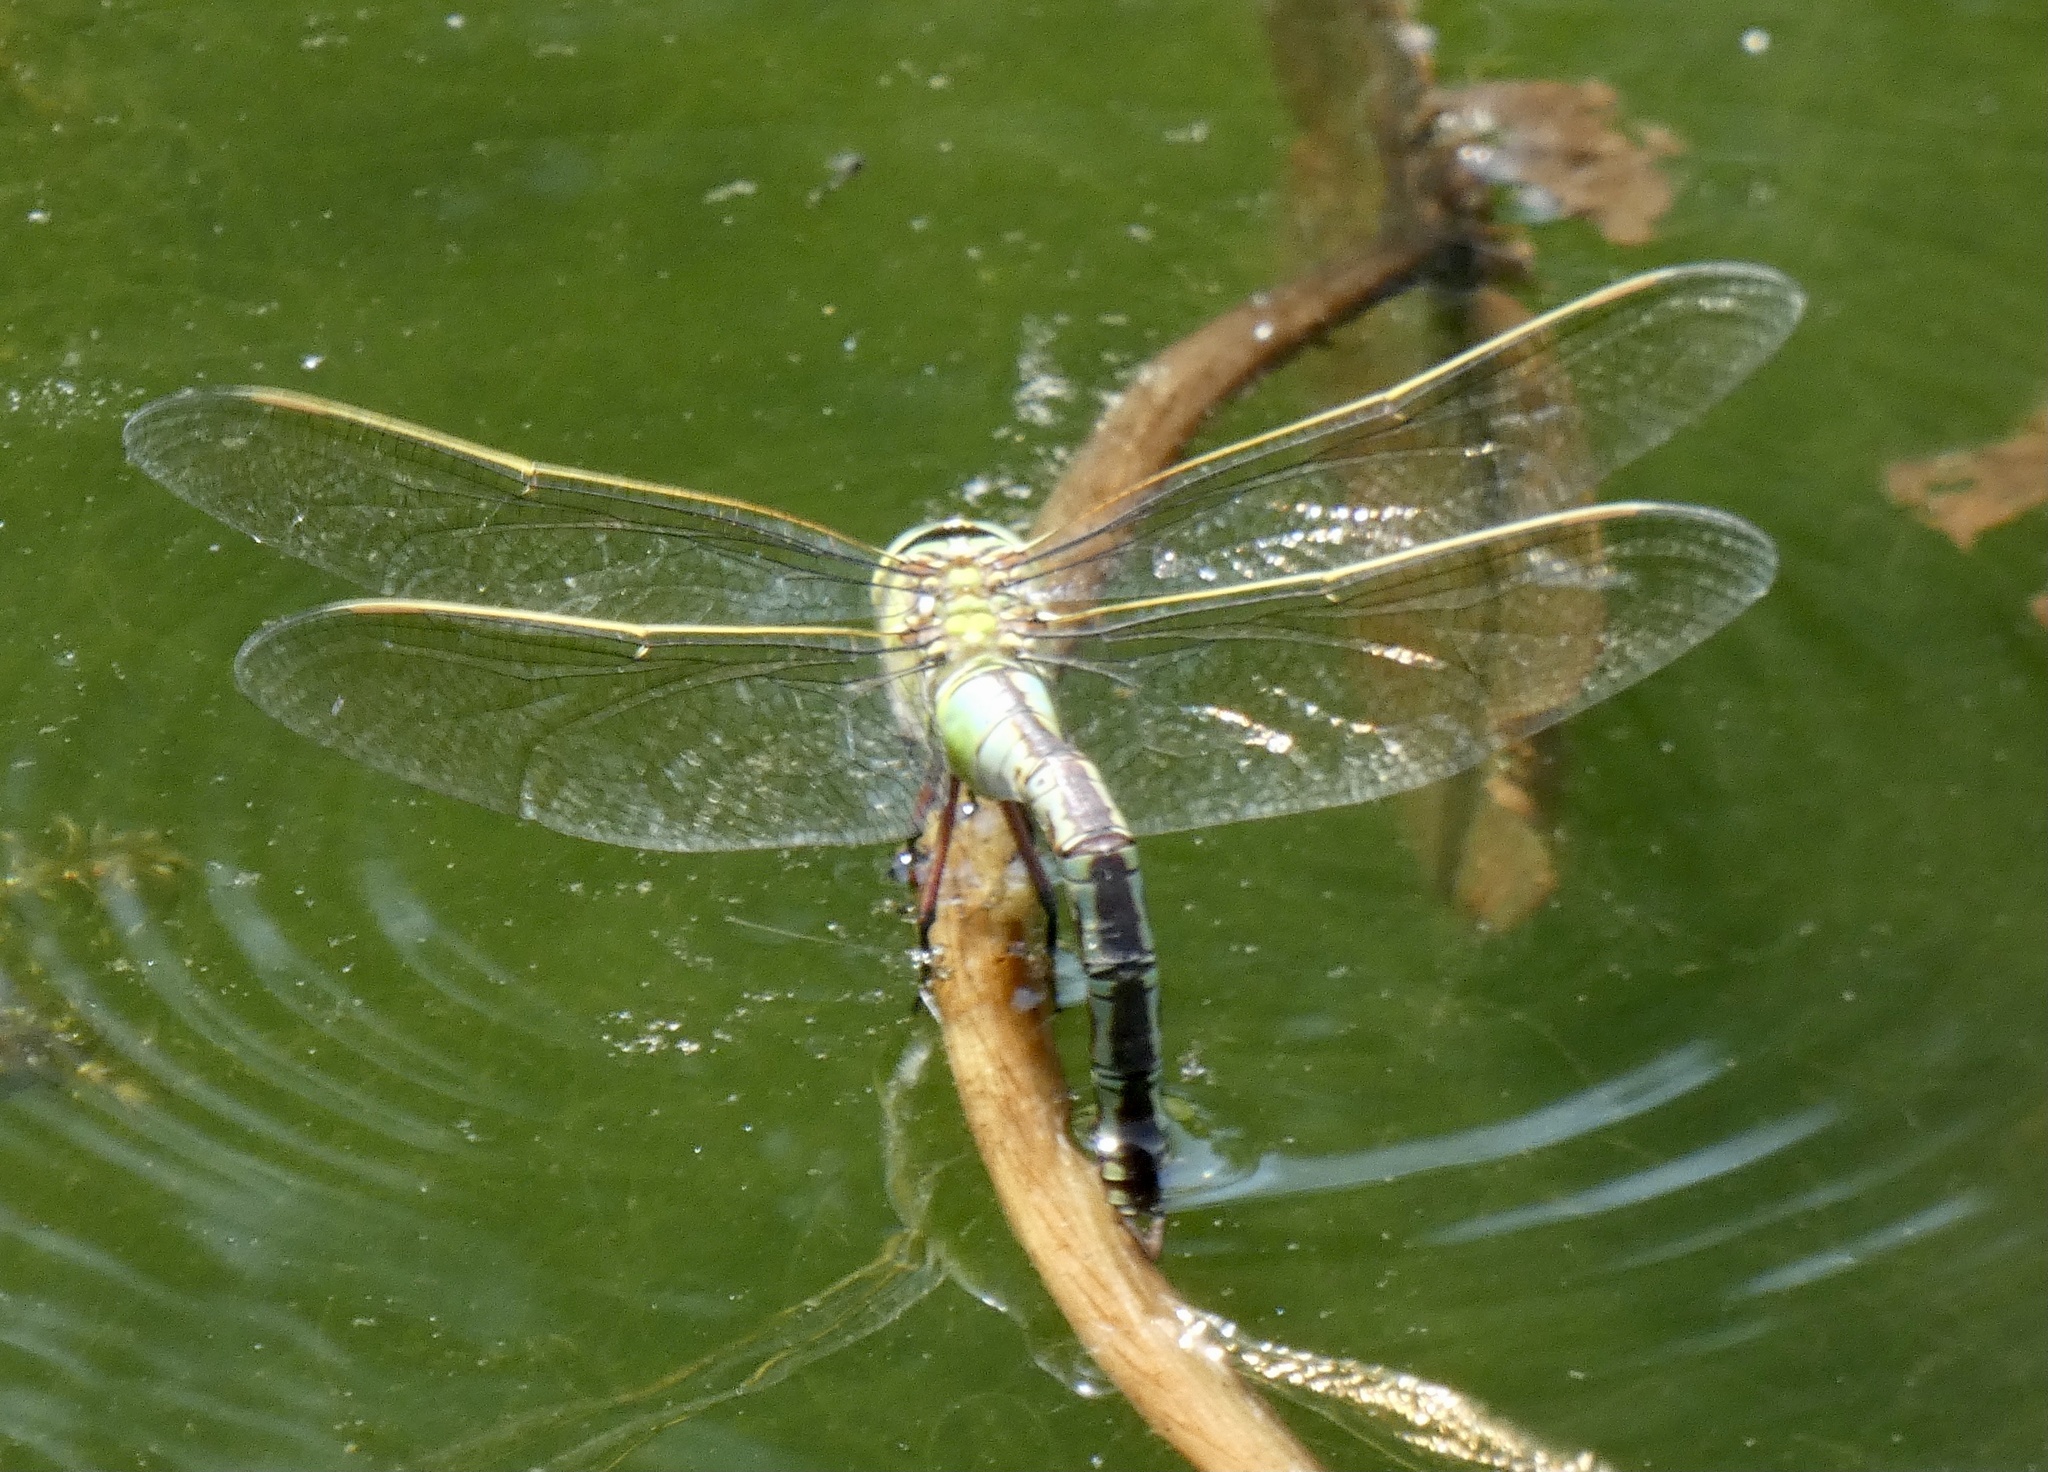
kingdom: Animalia
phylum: Arthropoda
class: Insecta
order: Odonata
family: Aeshnidae
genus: Anax
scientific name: Anax imperator
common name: Emperor dragonfly
